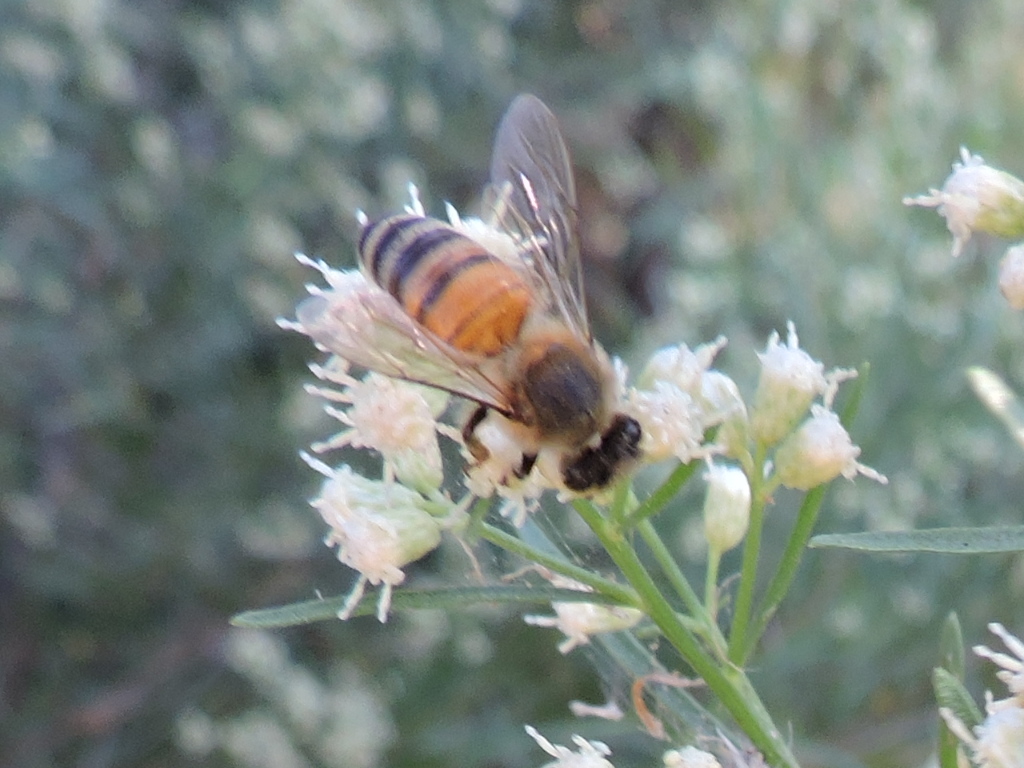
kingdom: Animalia
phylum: Arthropoda
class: Insecta
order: Hymenoptera
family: Apidae
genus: Apis
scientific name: Apis mellifera
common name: Honey bee
